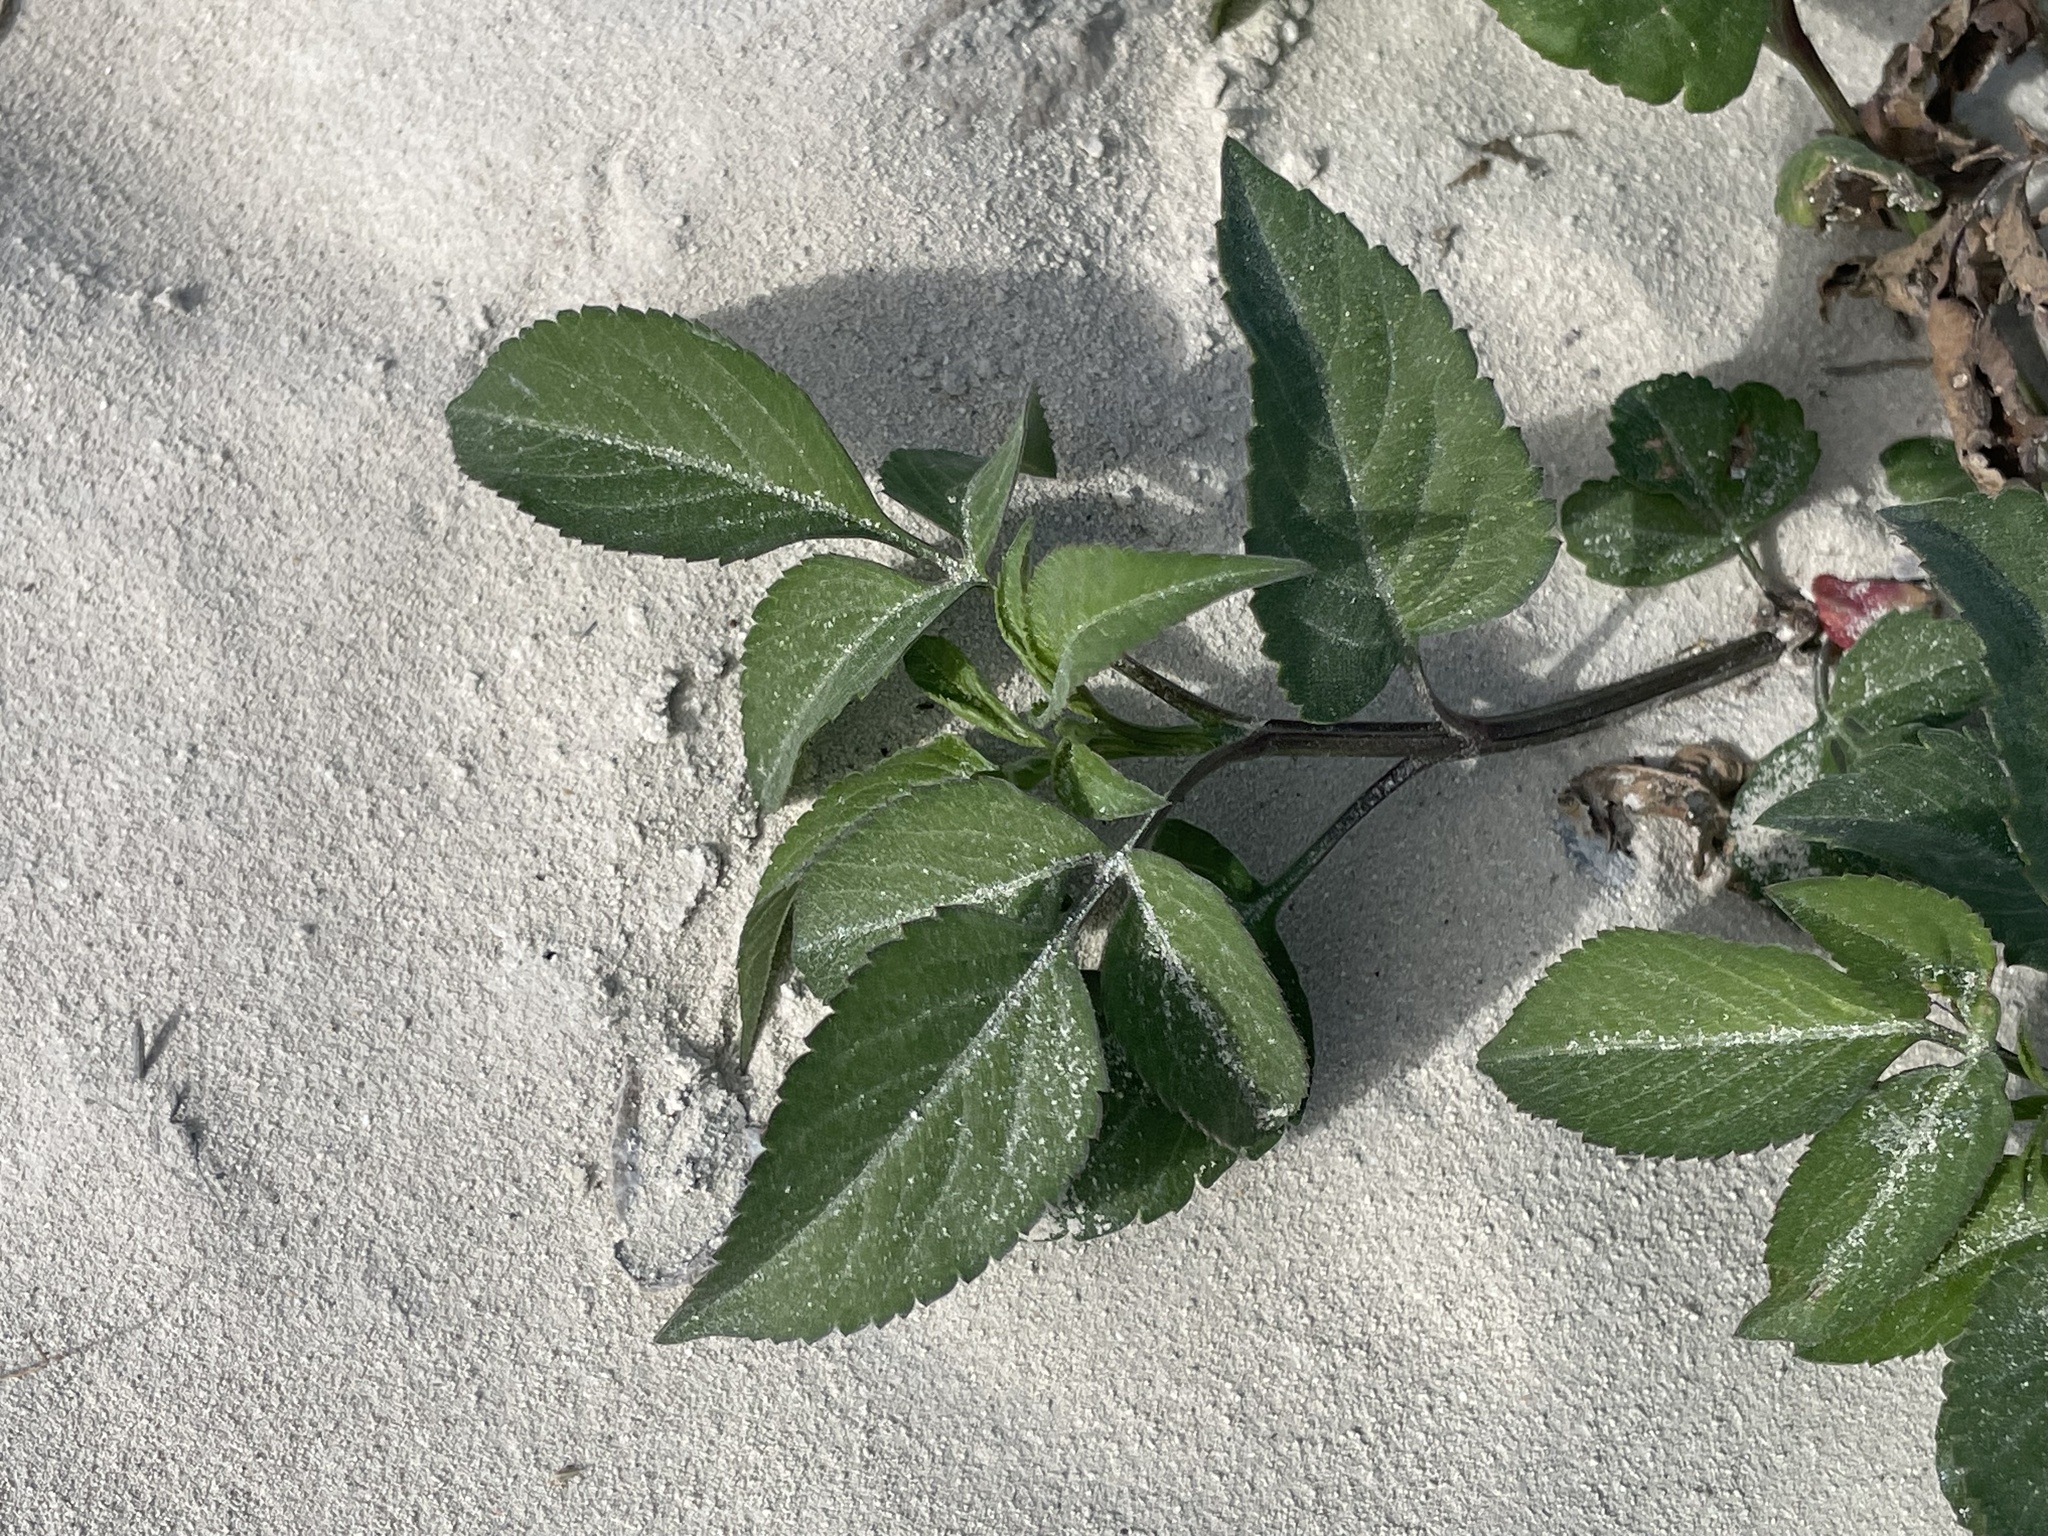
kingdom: Plantae
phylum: Tracheophyta
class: Magnoliopsida
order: Asterales
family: Asteraceae
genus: Bidens
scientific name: Bidens alba
